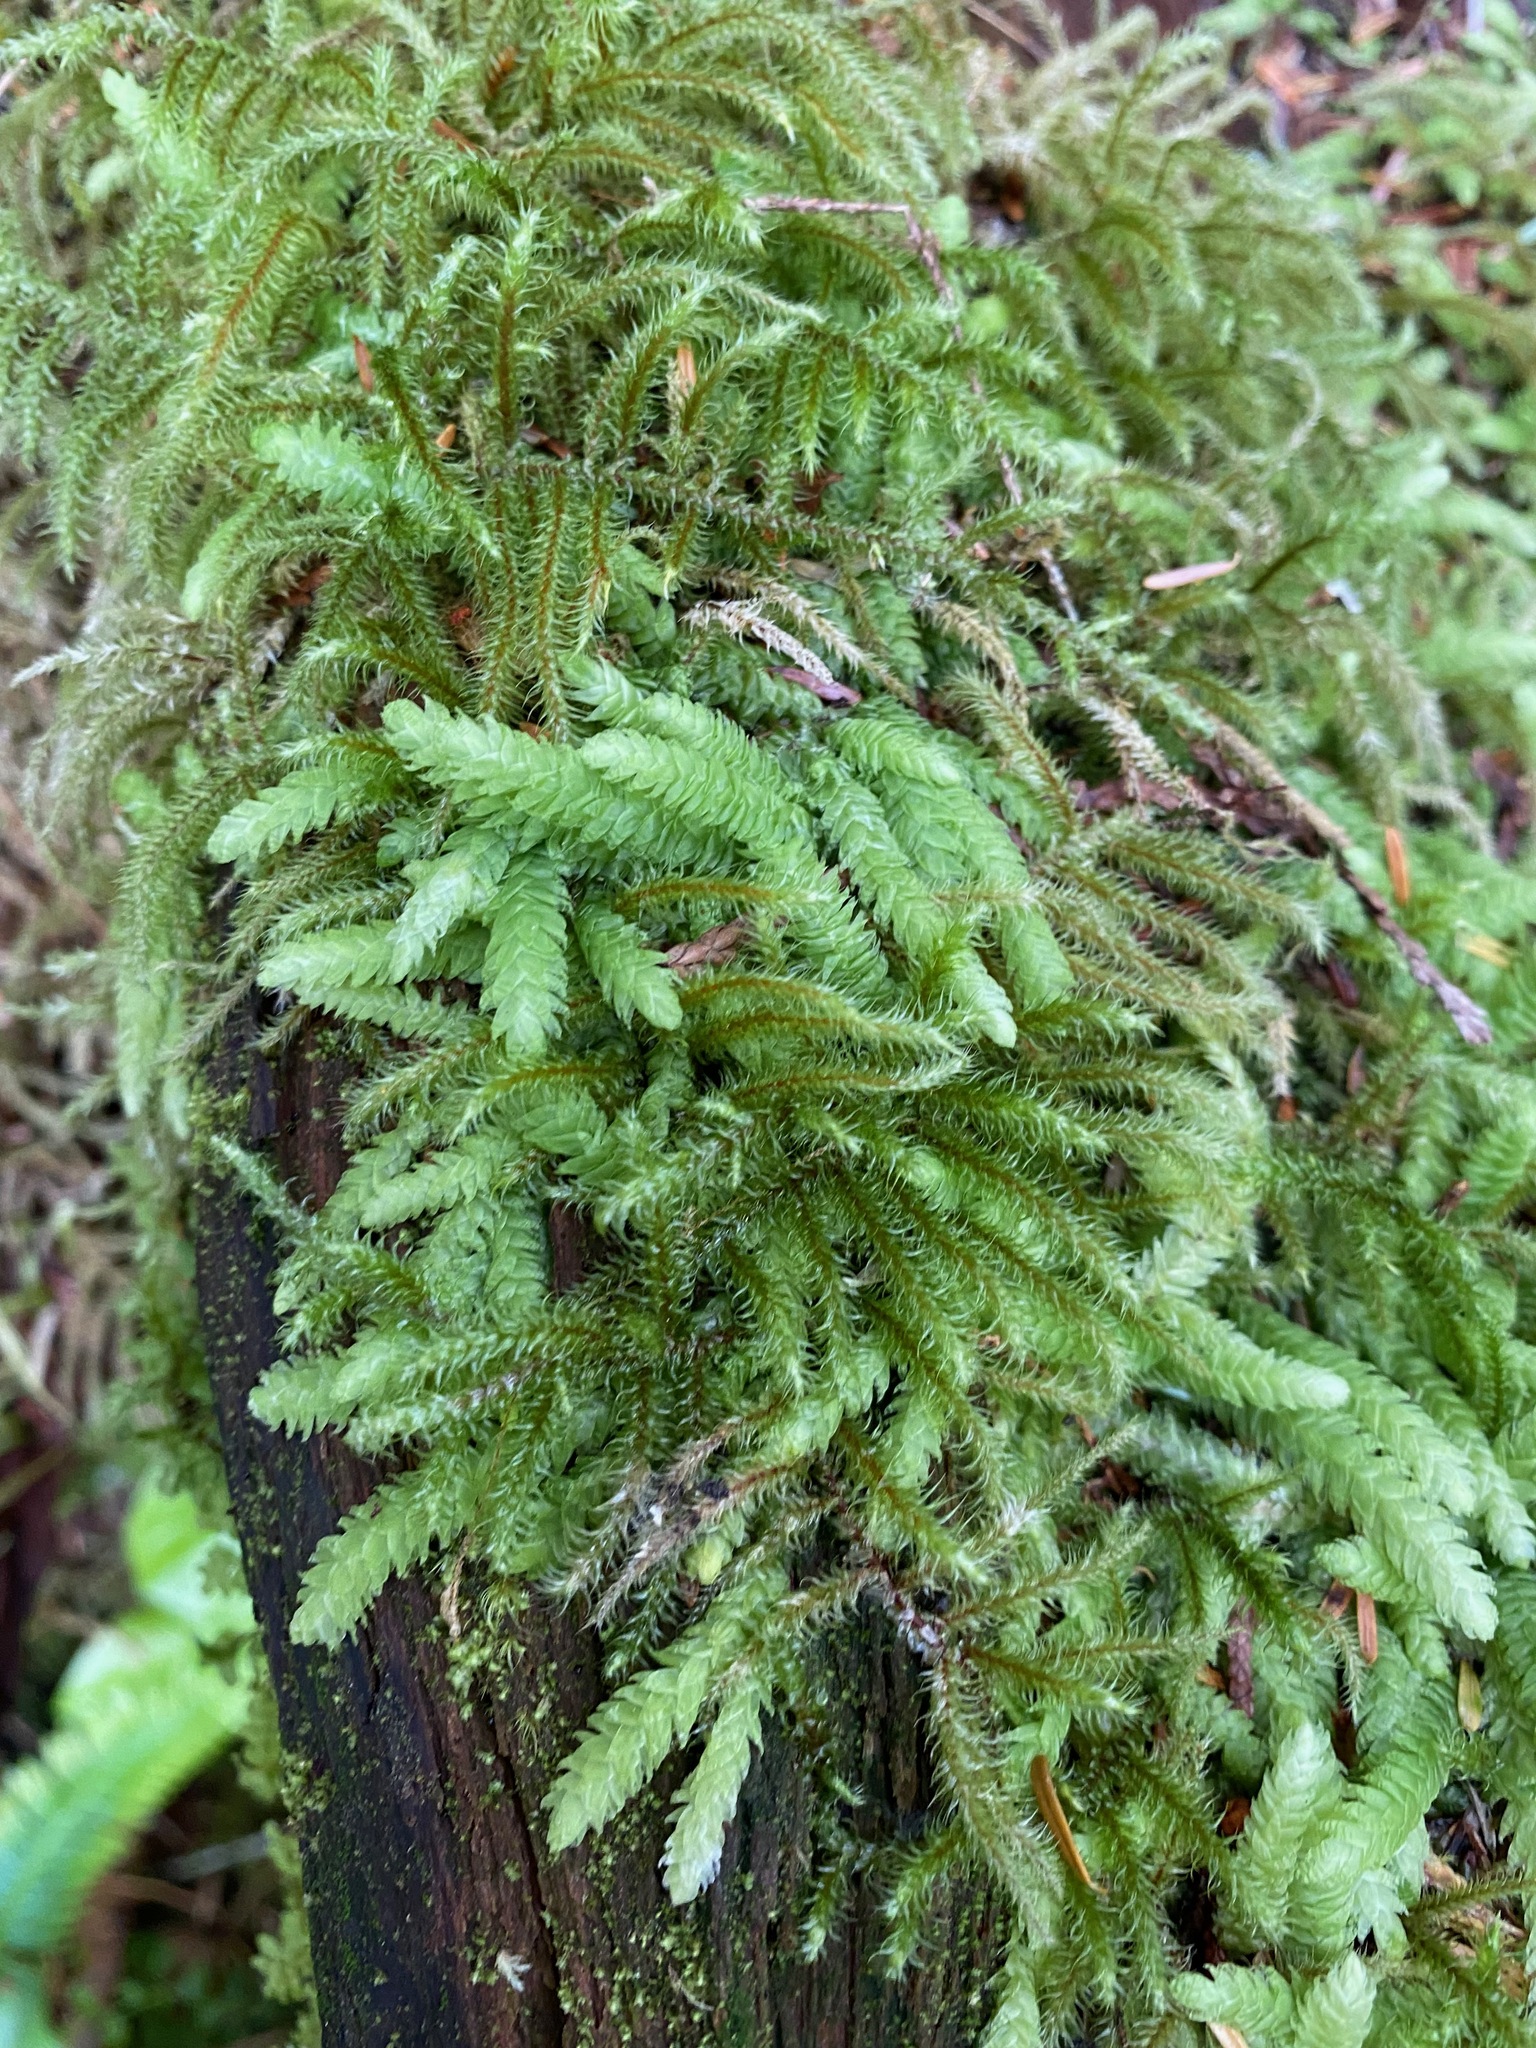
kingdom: Plantae
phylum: Bryophyta
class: Bryopsida
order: Hypnales
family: Plagiotheciaceae
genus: Plagiothecium
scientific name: Plagiothecium undulatum
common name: Waved silk-moss
